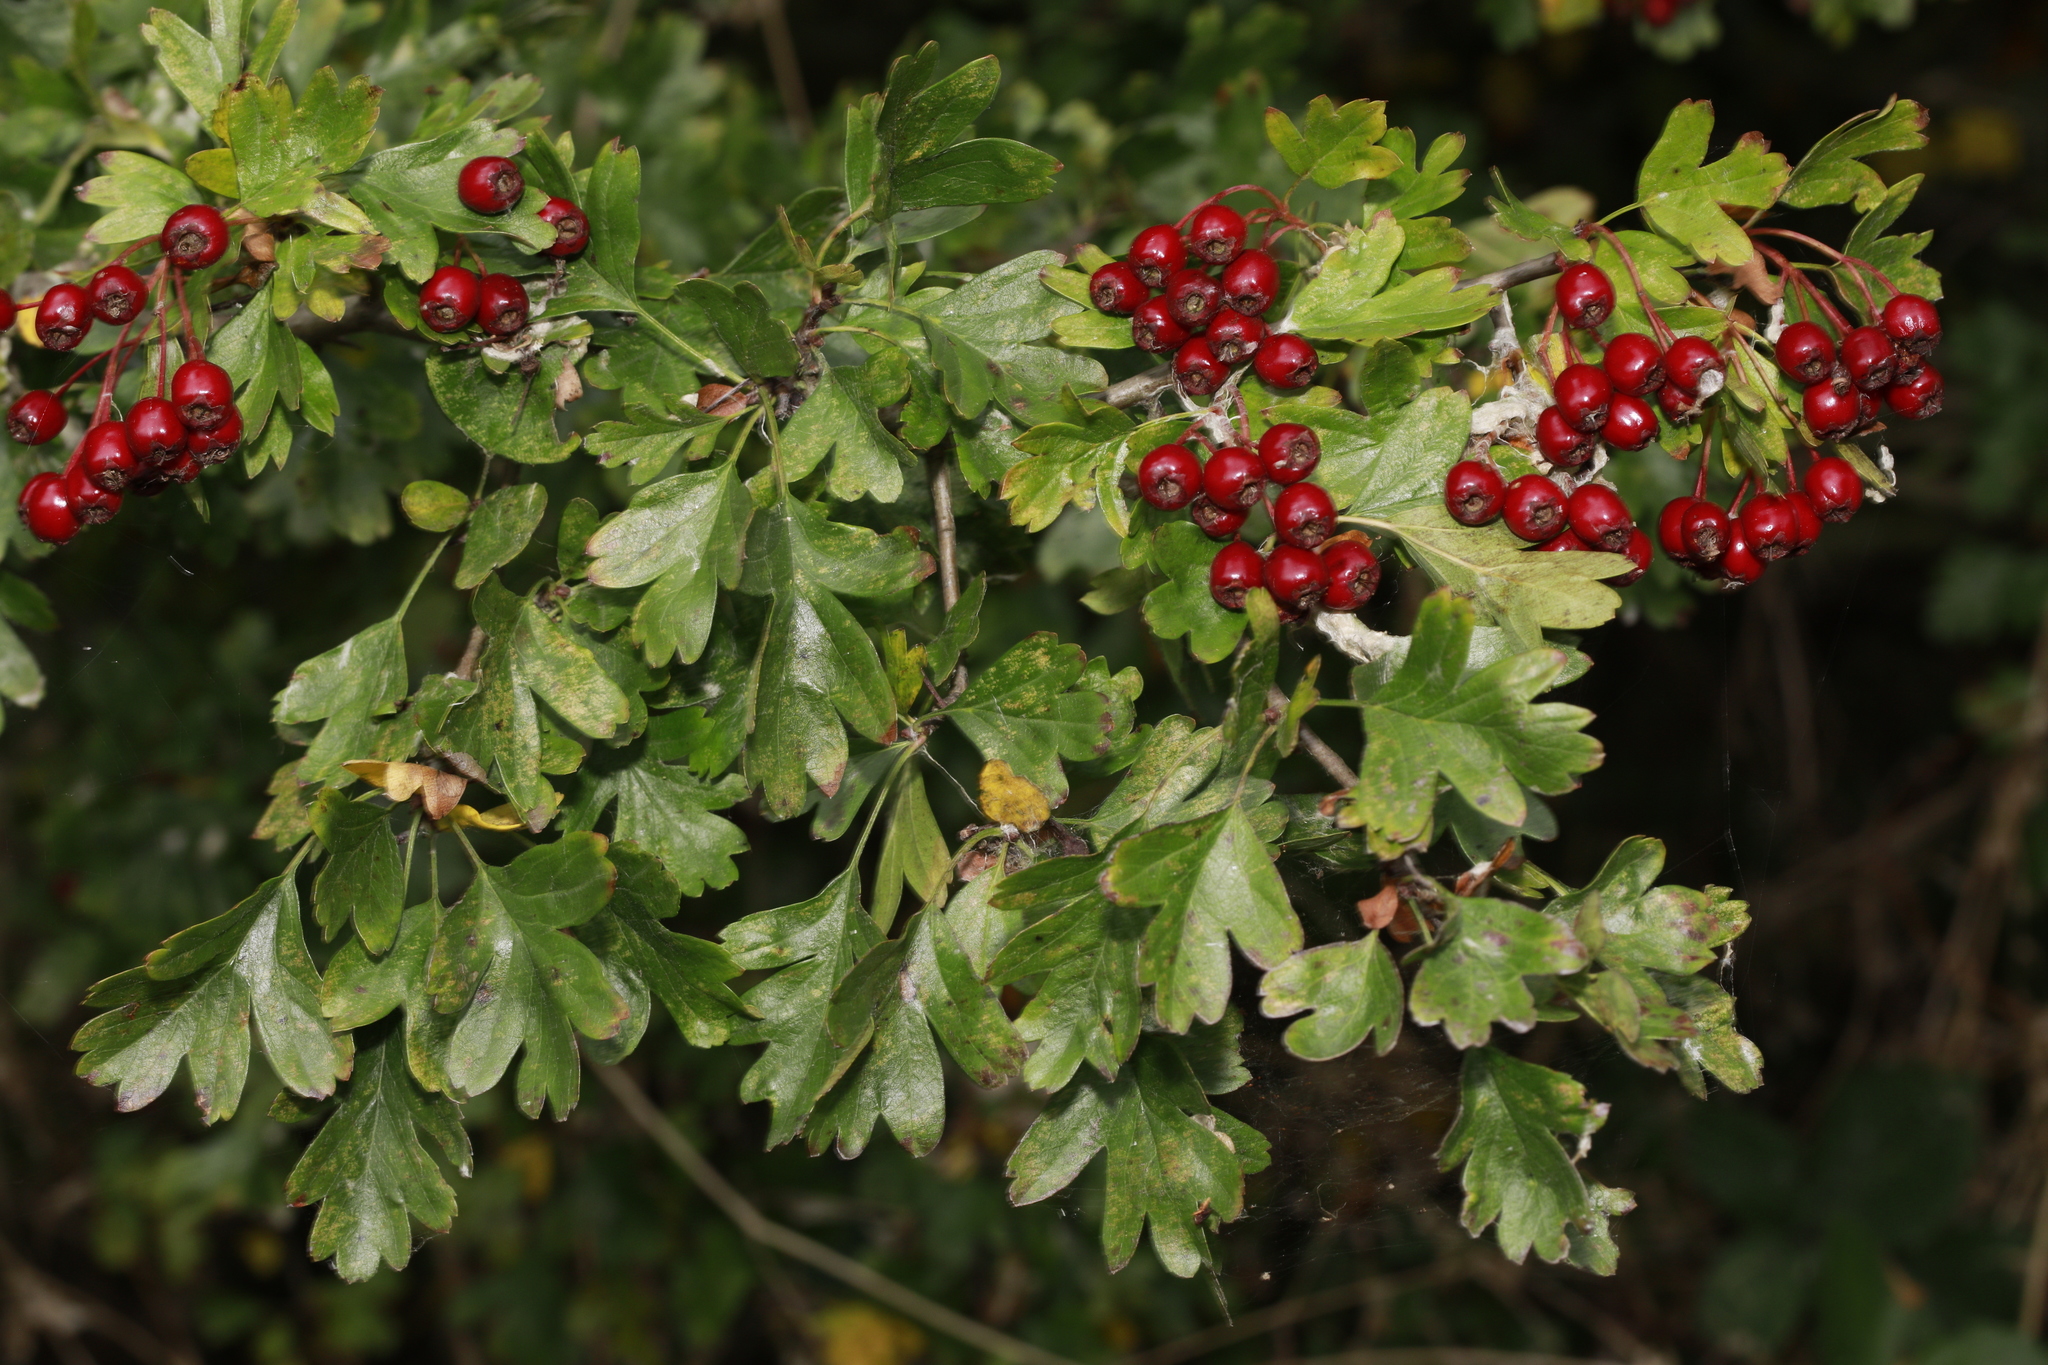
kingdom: Plantae
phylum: Tracheophyta
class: Magnoliopsida
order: Rosales
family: Rosaceae
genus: Crataegus
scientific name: Crataegus monogyna
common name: Hawthorn
